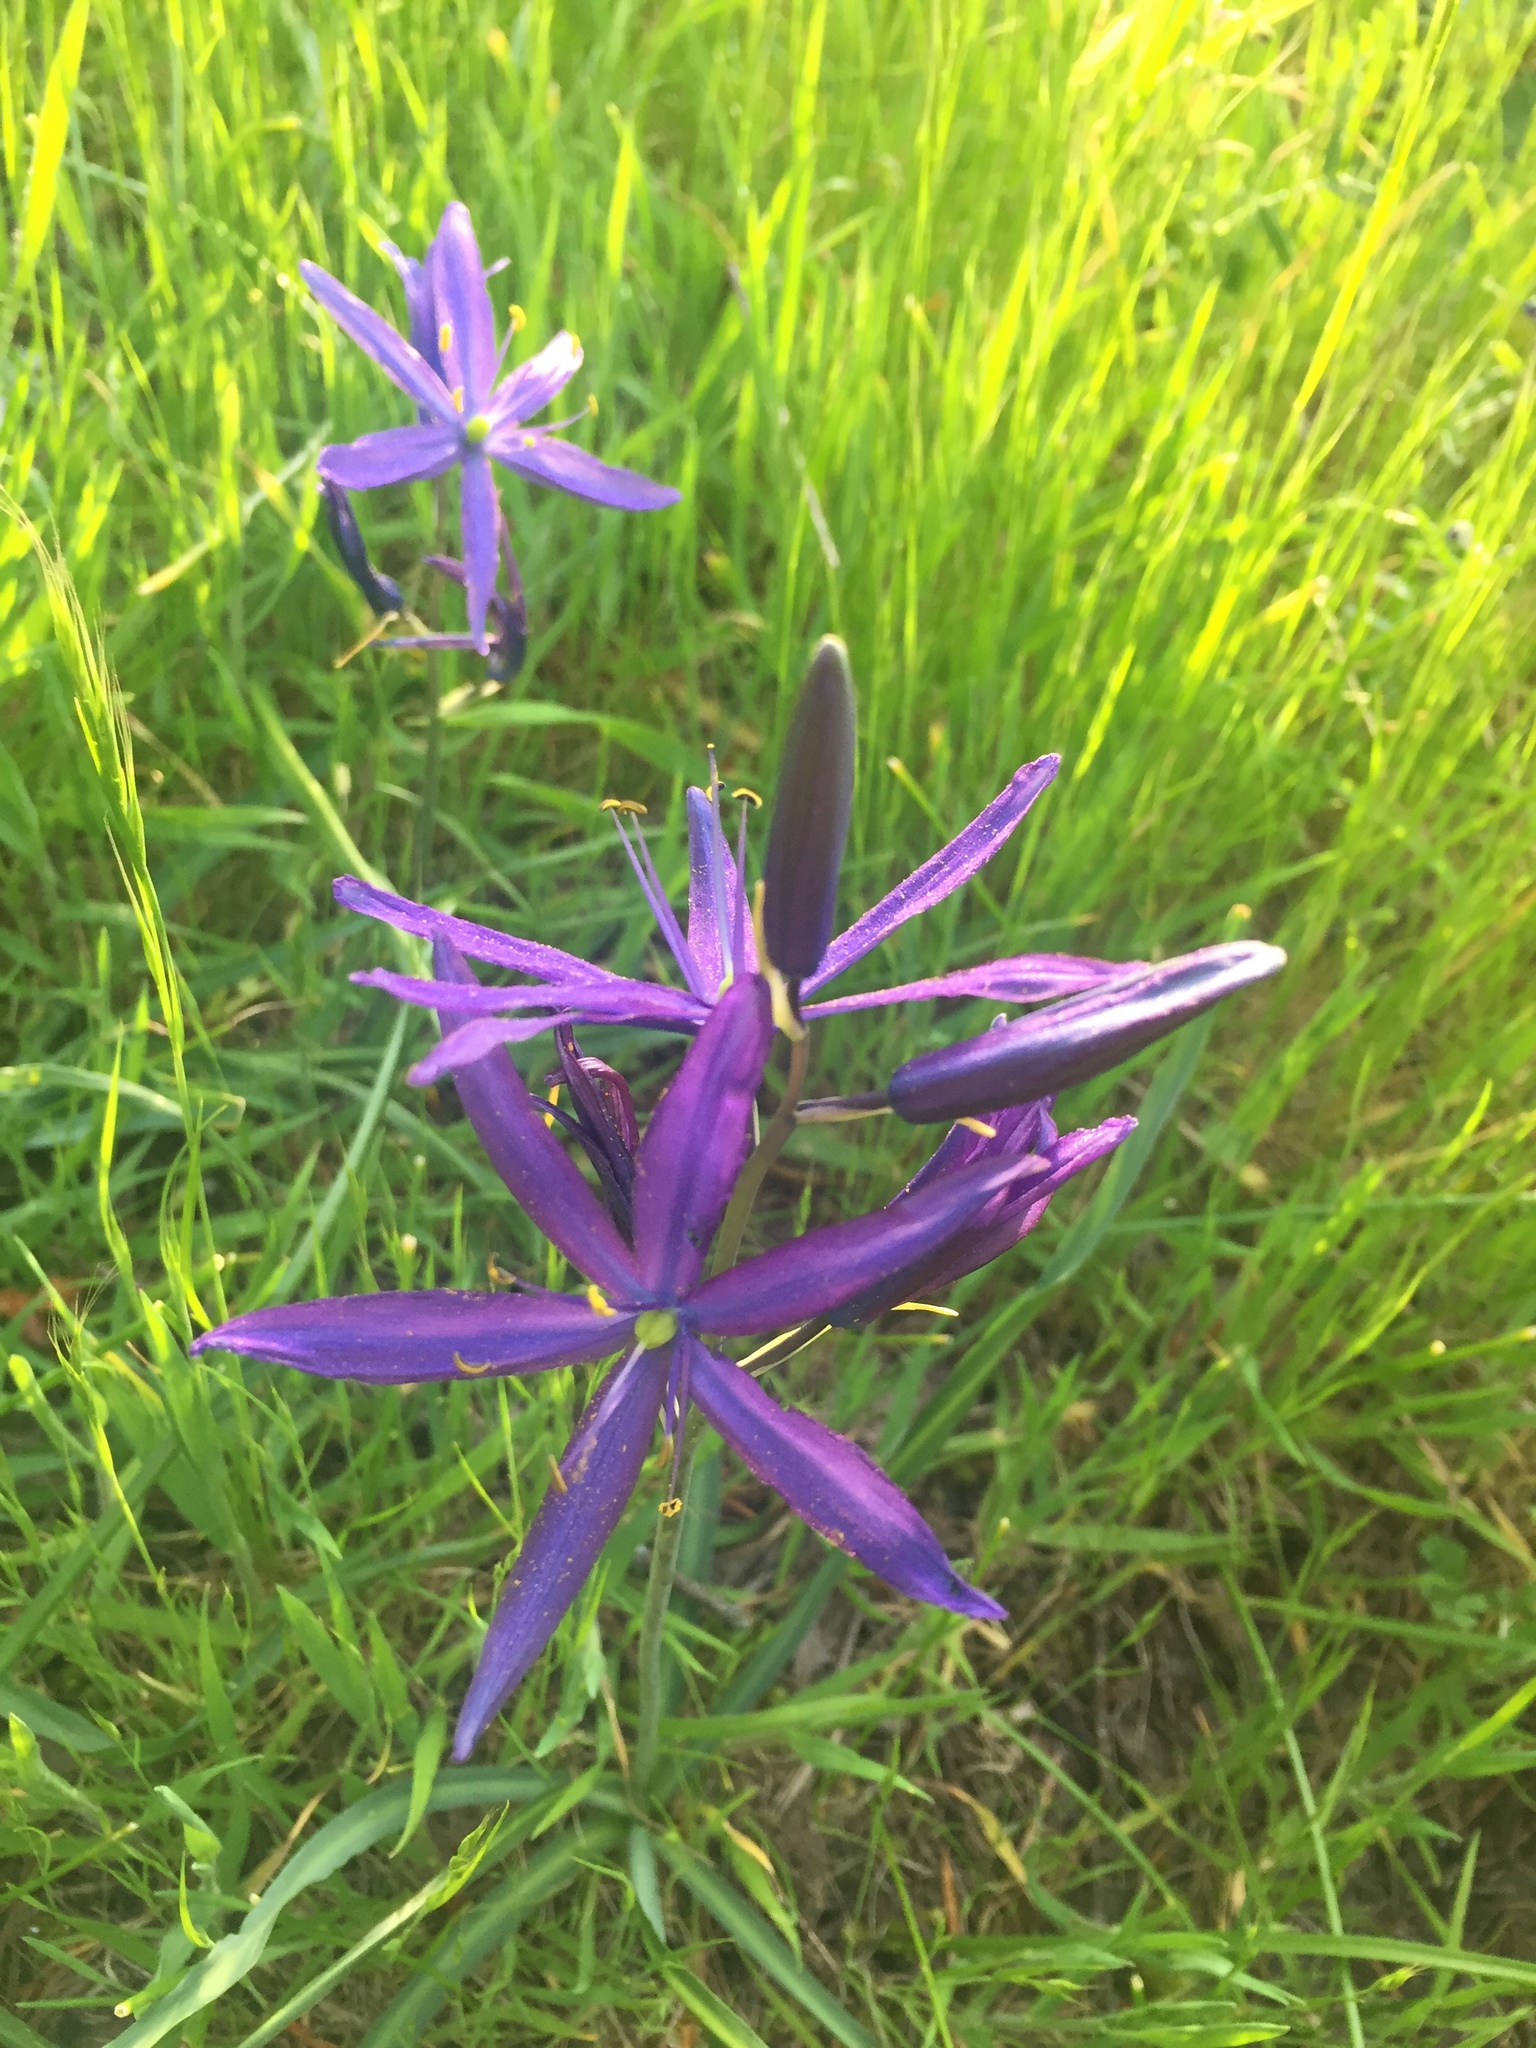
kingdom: Plantae
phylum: Tracheophyta
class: Liliopsida
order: Asparagales
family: Asparagaceae
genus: Camassia
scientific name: Camassia leichtlinii
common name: Leichtlin's camas
